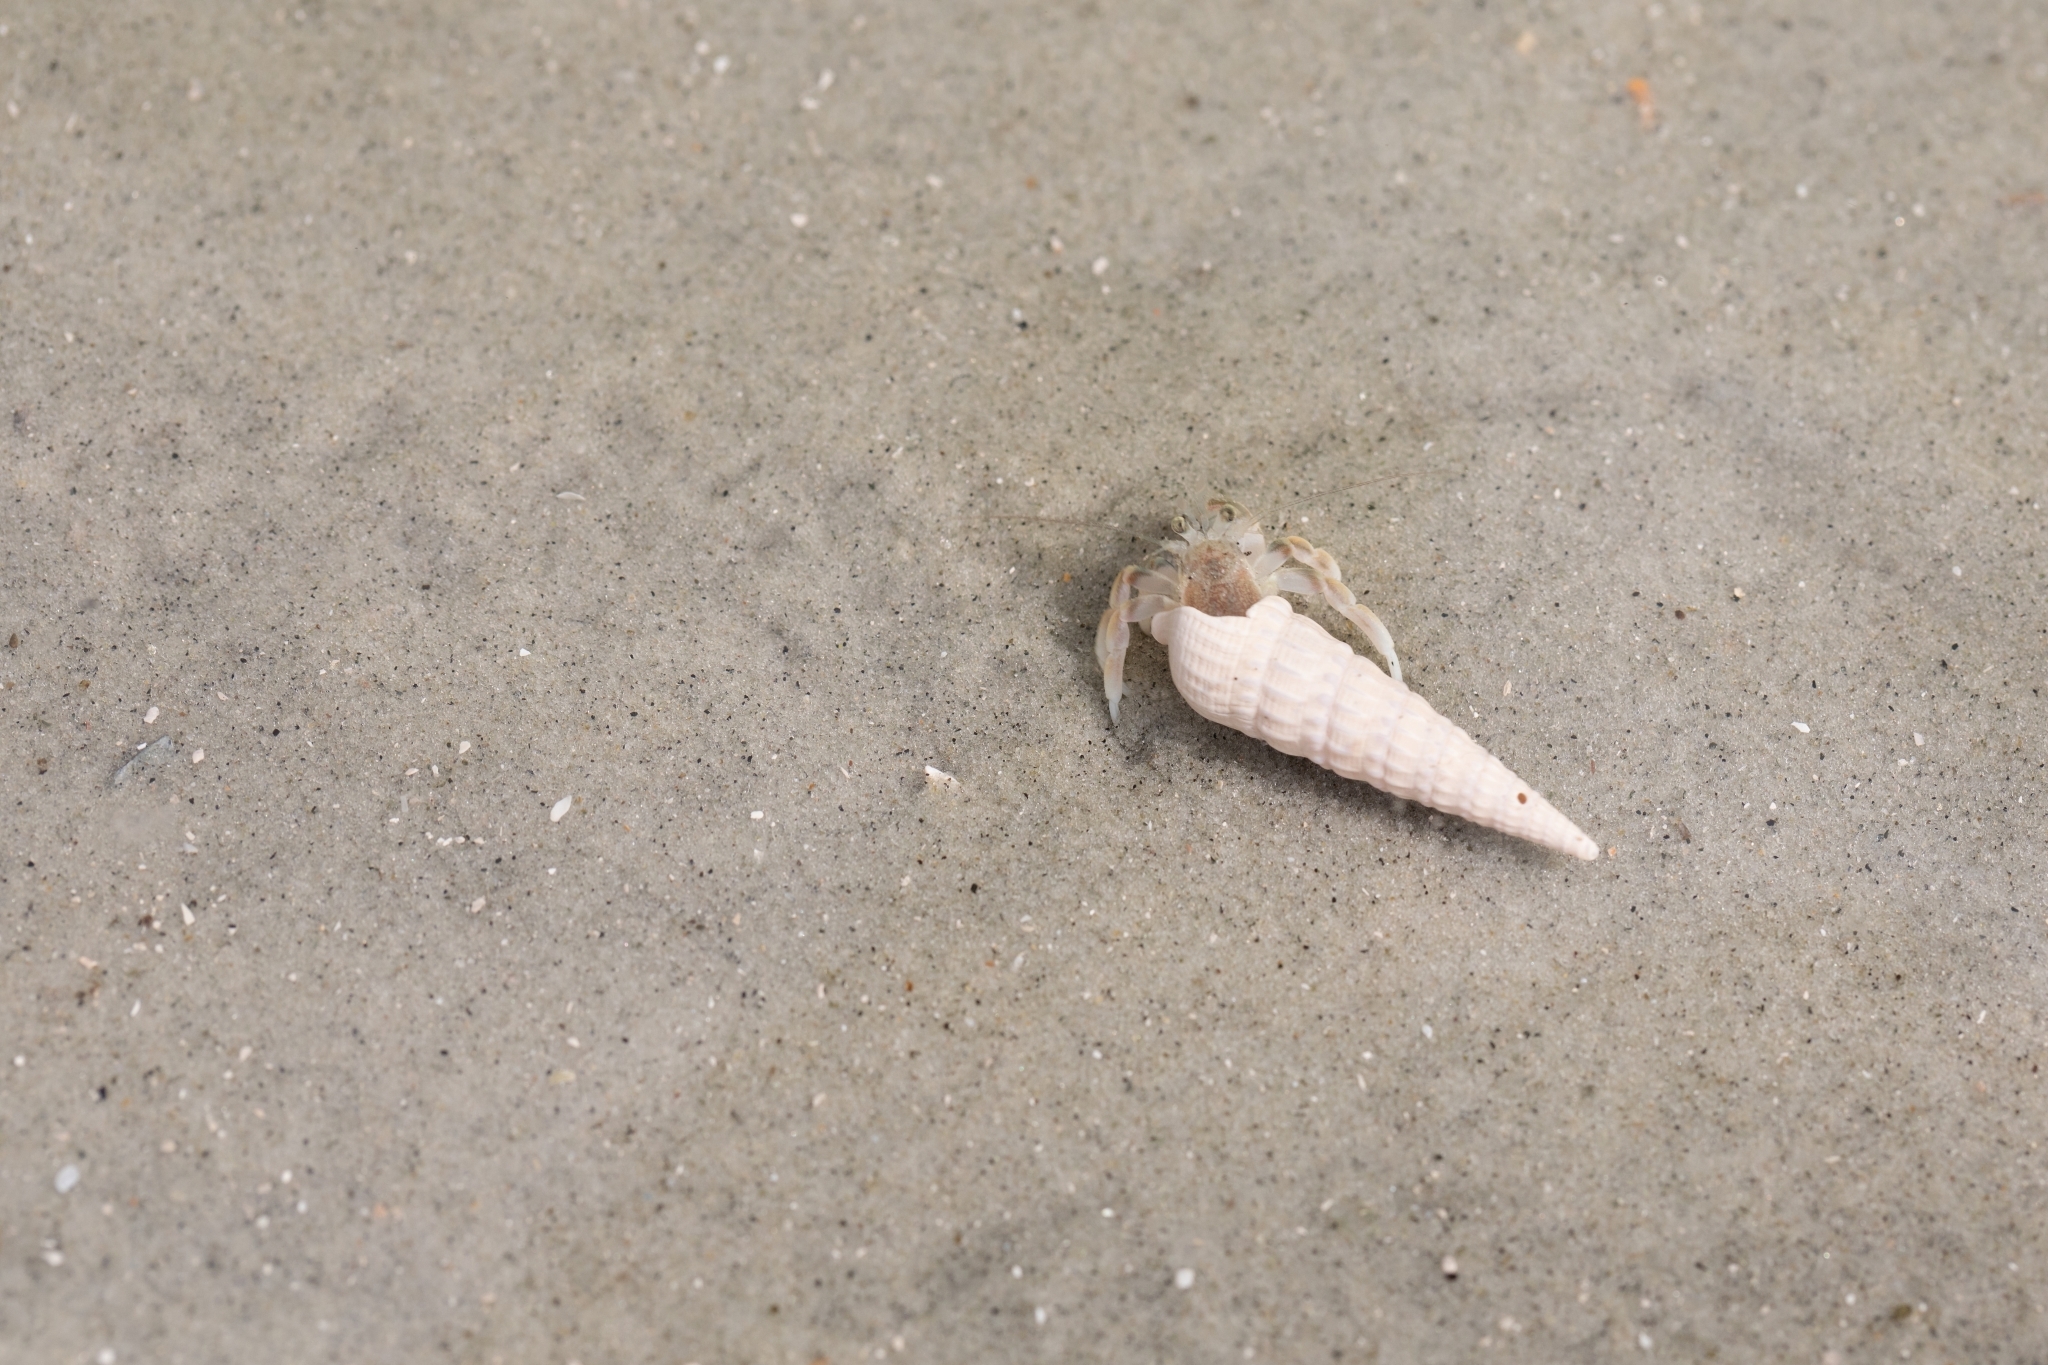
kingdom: Animalia
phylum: Arthropoda
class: Malacostraca
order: Decapoda
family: Paguridae
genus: Pagurus
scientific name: Pagurus longicarpus
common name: Long-armed hermit crab
